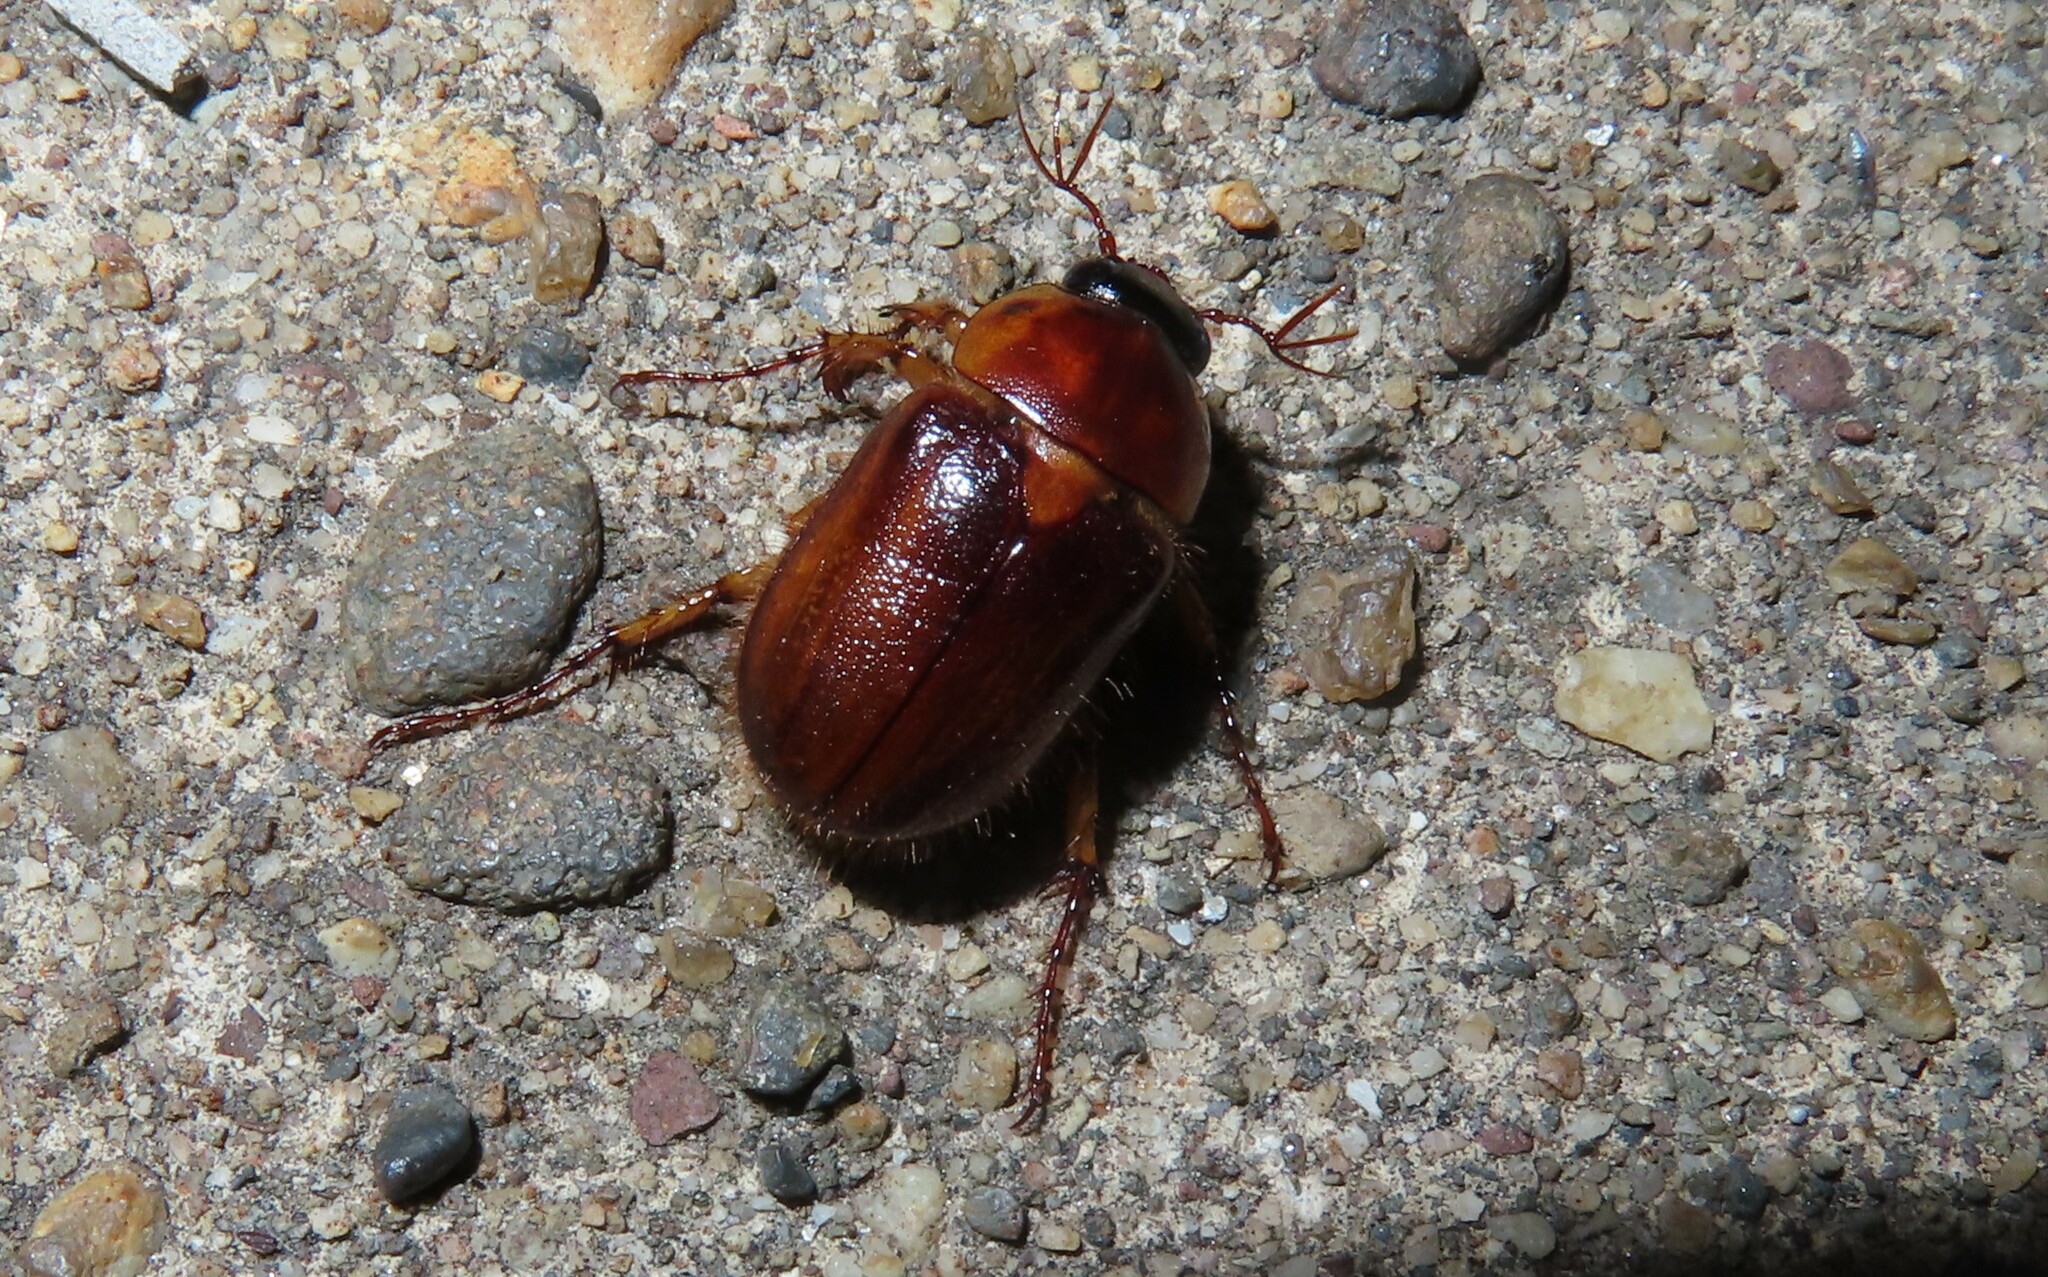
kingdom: Animalia
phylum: Arthropoda
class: Insecta
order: Coleoptera
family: Scarabaeidae
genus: Cyclocephala
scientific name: Cyclocephala lurida
